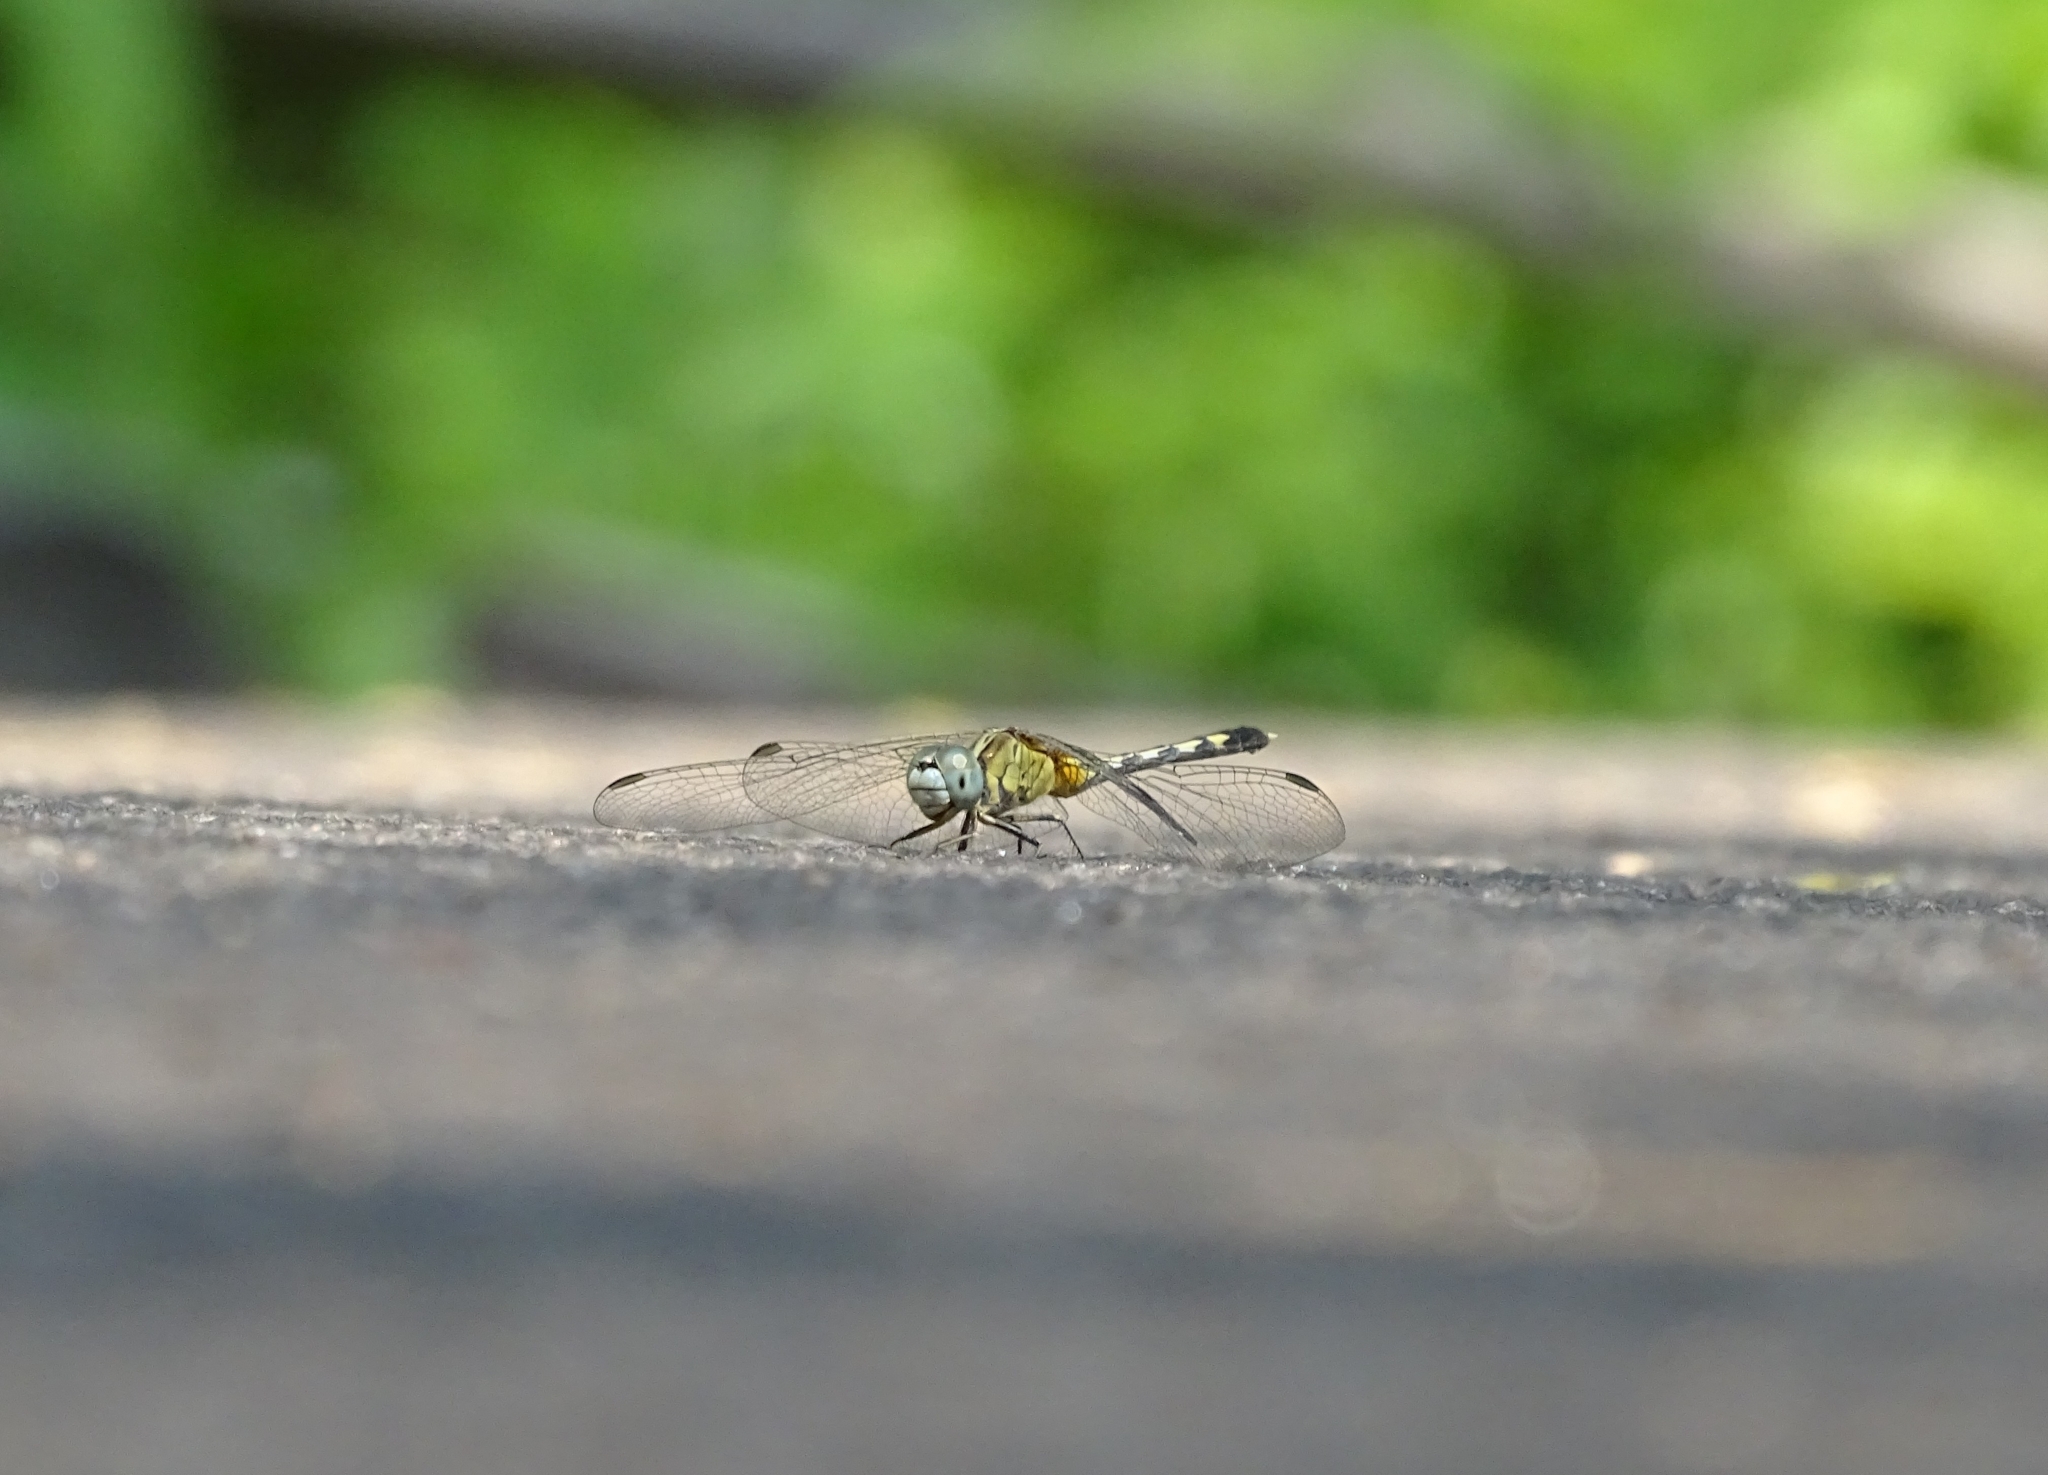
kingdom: Animalia
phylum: Arthropoda
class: Insecta
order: Odonata
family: Libellulidae
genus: Diplacodes
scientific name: Diplacodes trivialis
